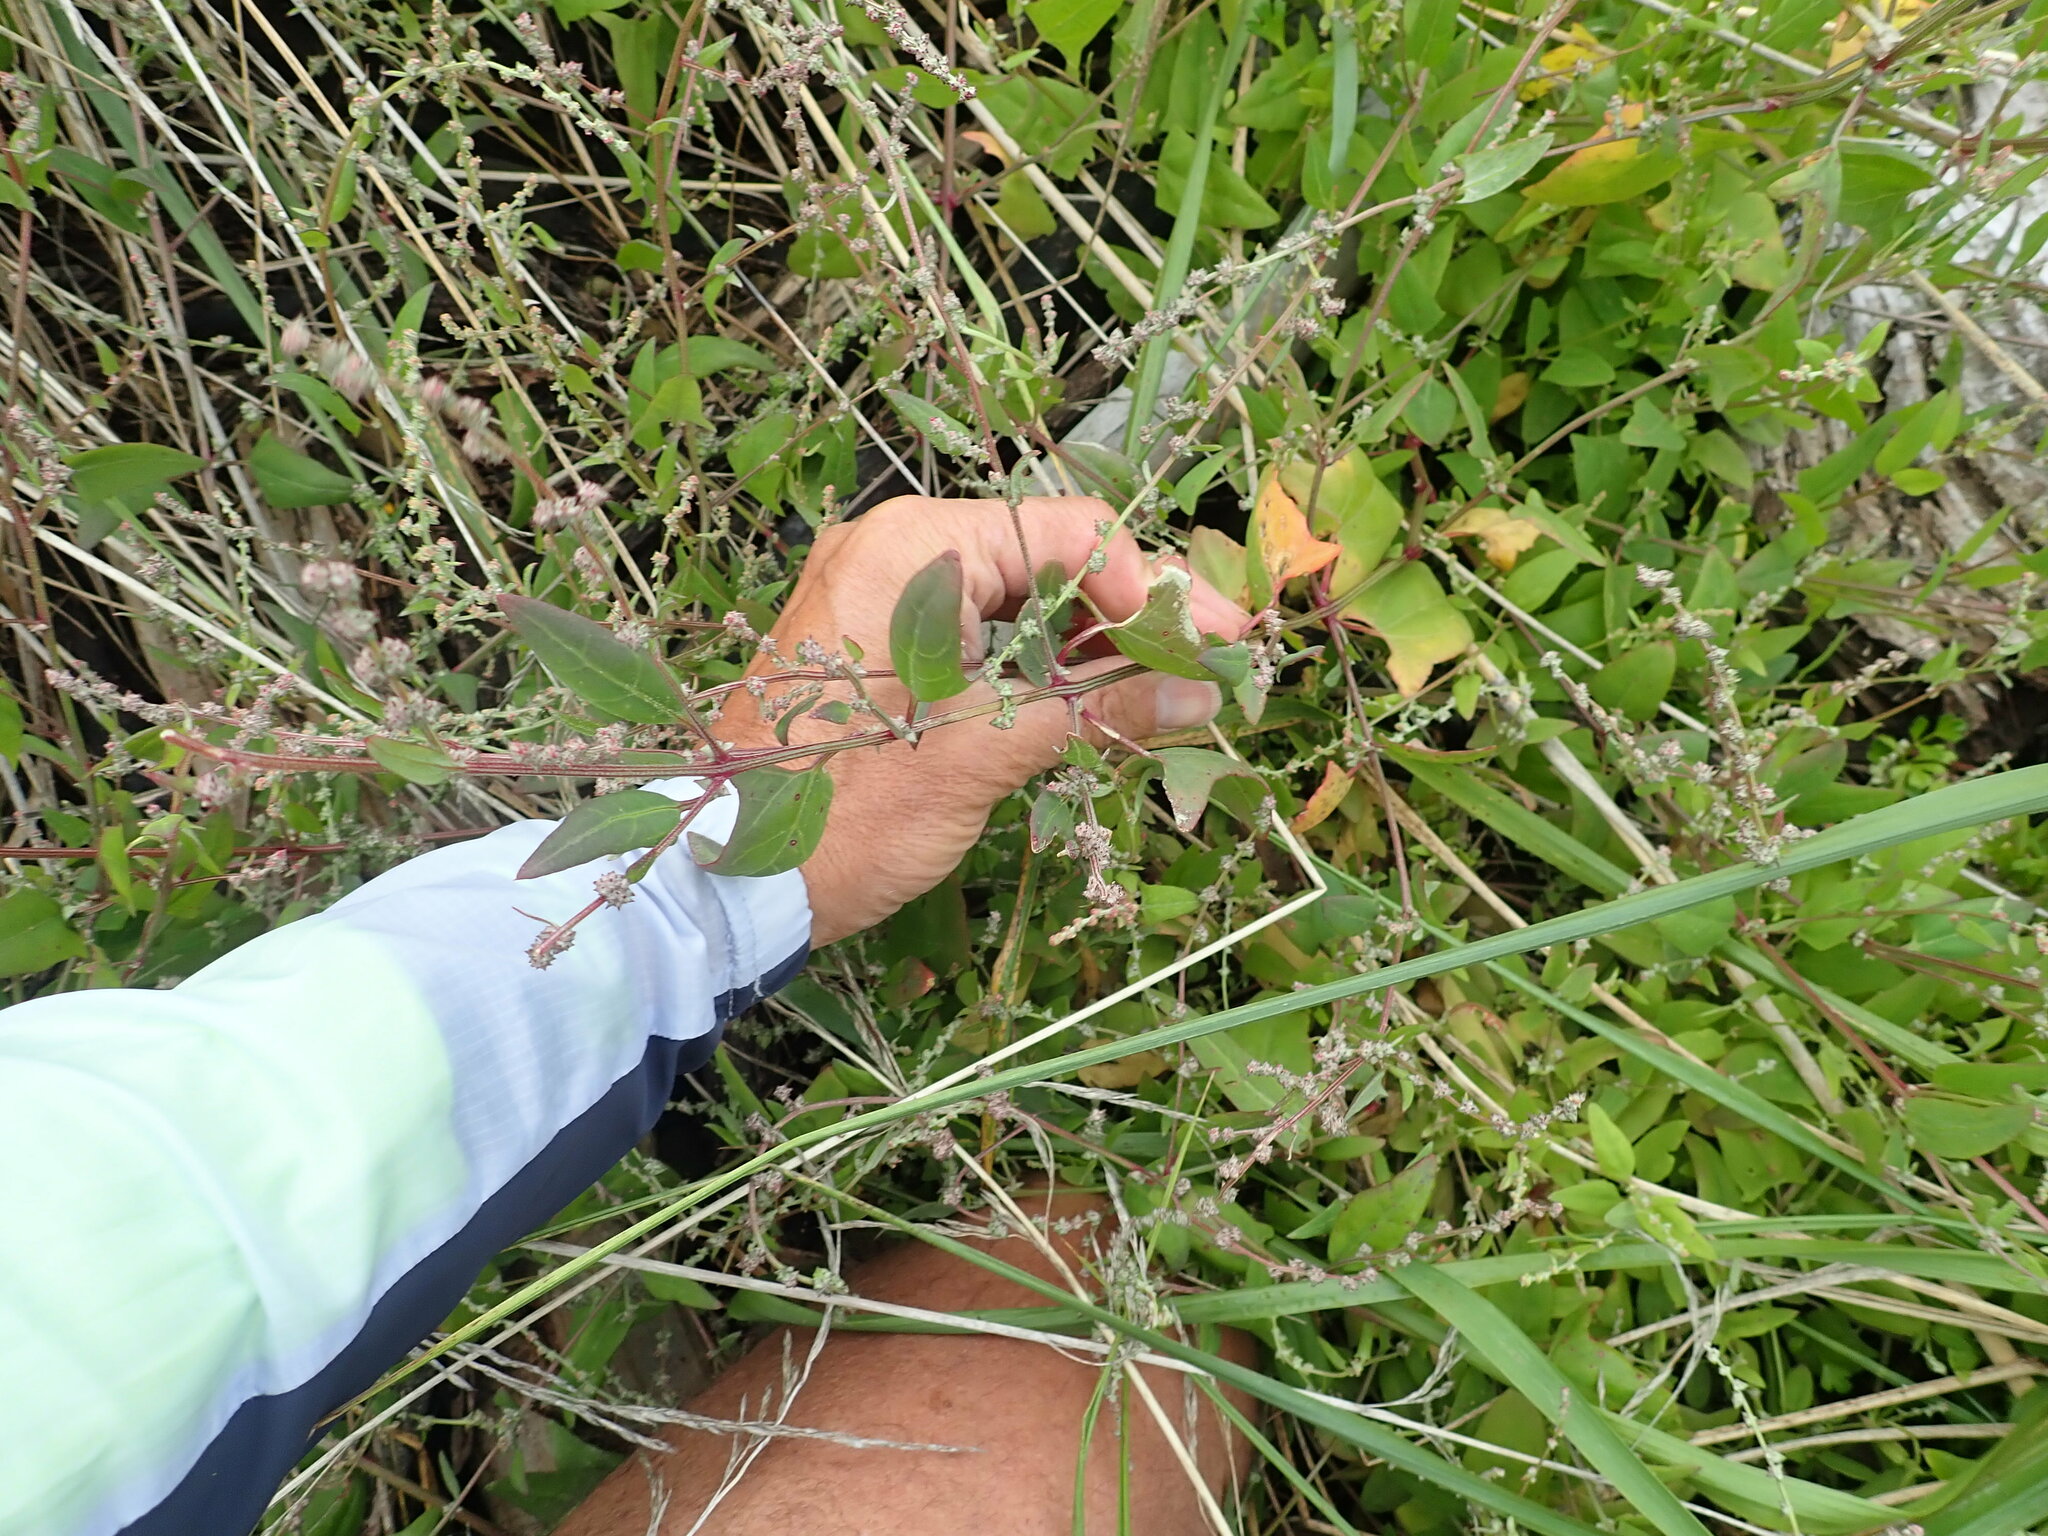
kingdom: Plantae
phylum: Tracheophyta
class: Magnoliopsida
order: Caryophyllales
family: Amaranthaceae
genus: Atriplex
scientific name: Atriplex prostrata
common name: Spear-leaved orache
